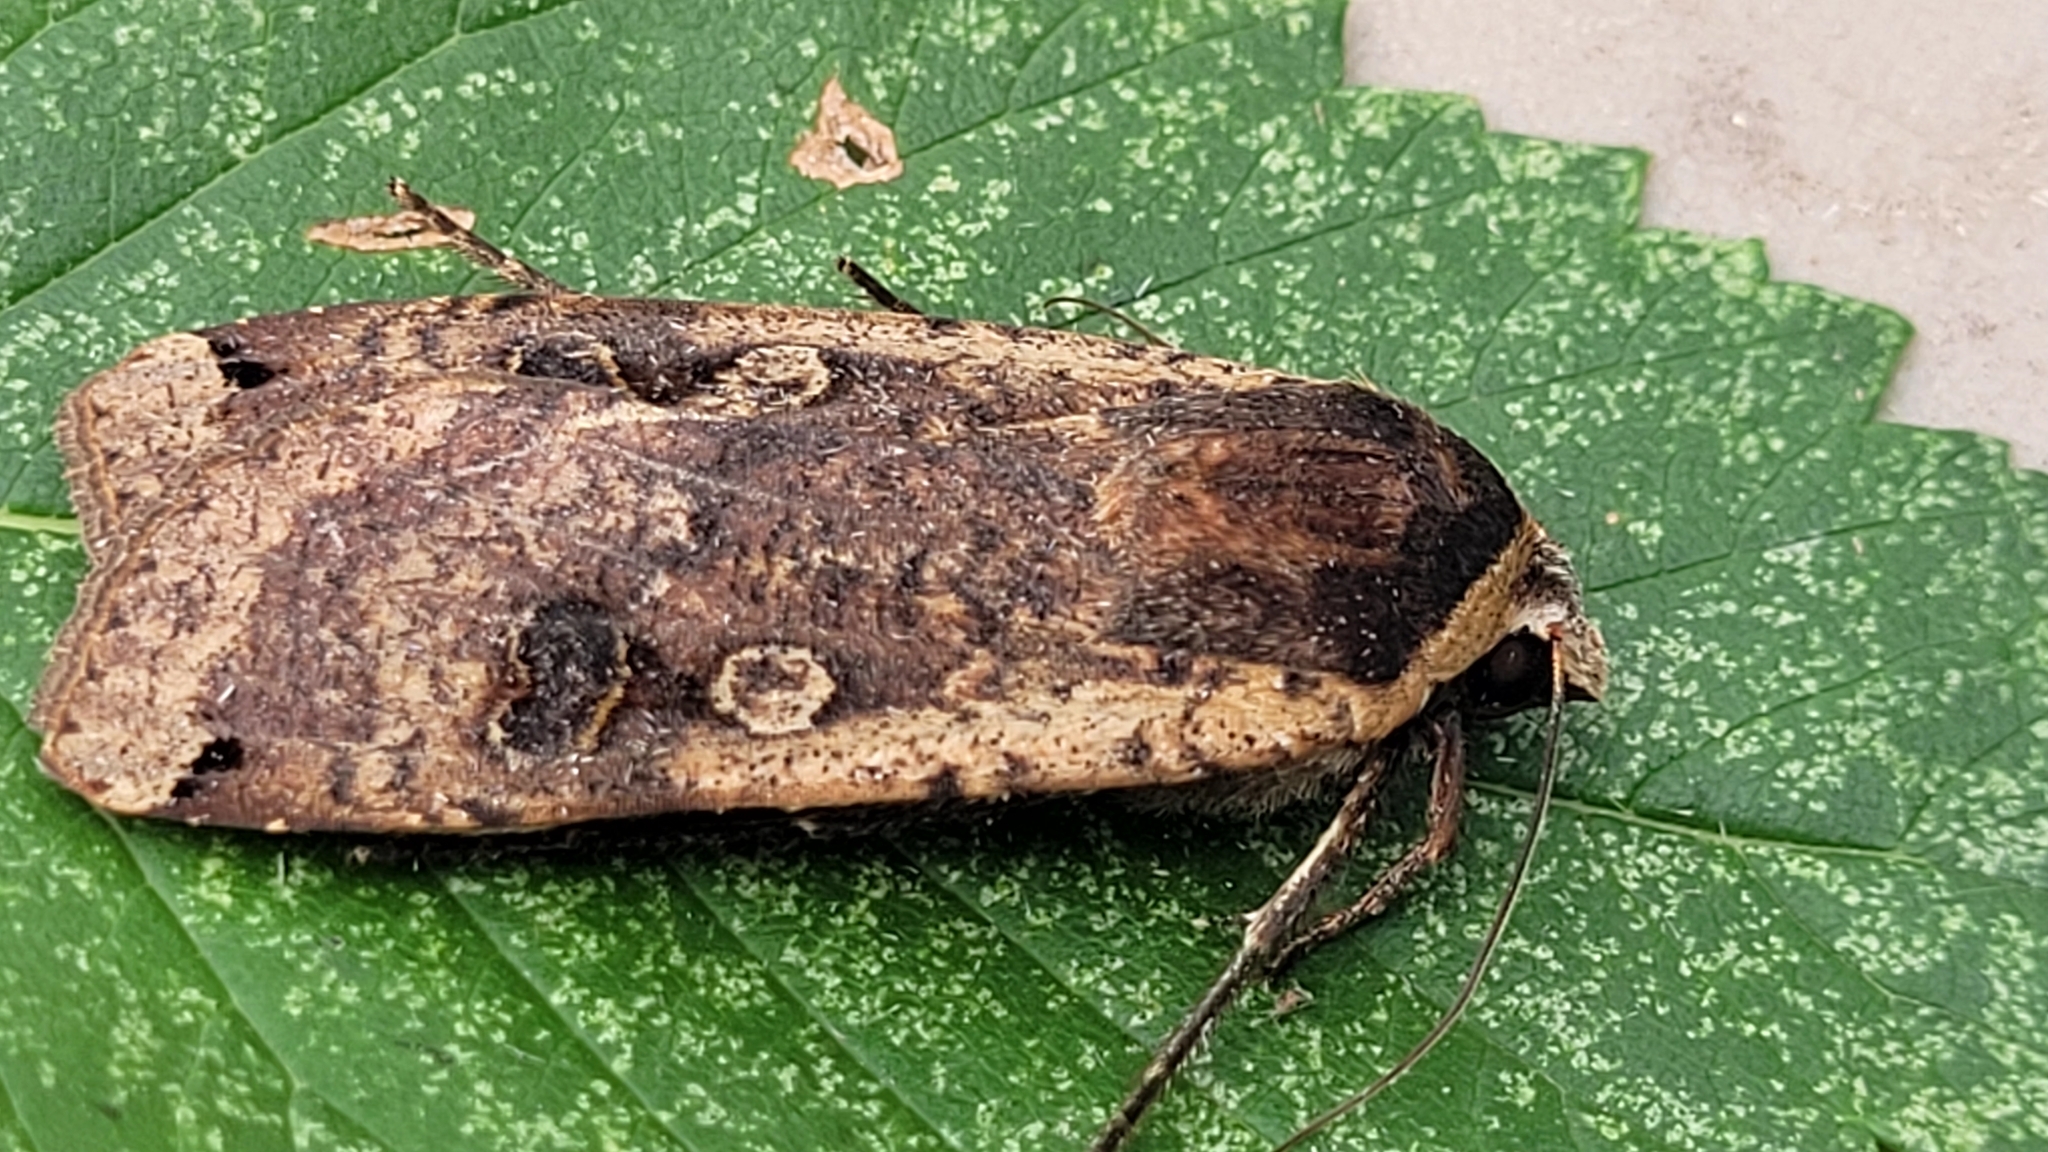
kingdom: Animalia
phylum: Arthropoda
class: Insecta
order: Lepidoptera
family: Noctuidae
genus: Noctua
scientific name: Noctua pronuba
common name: Large yellow underwing
